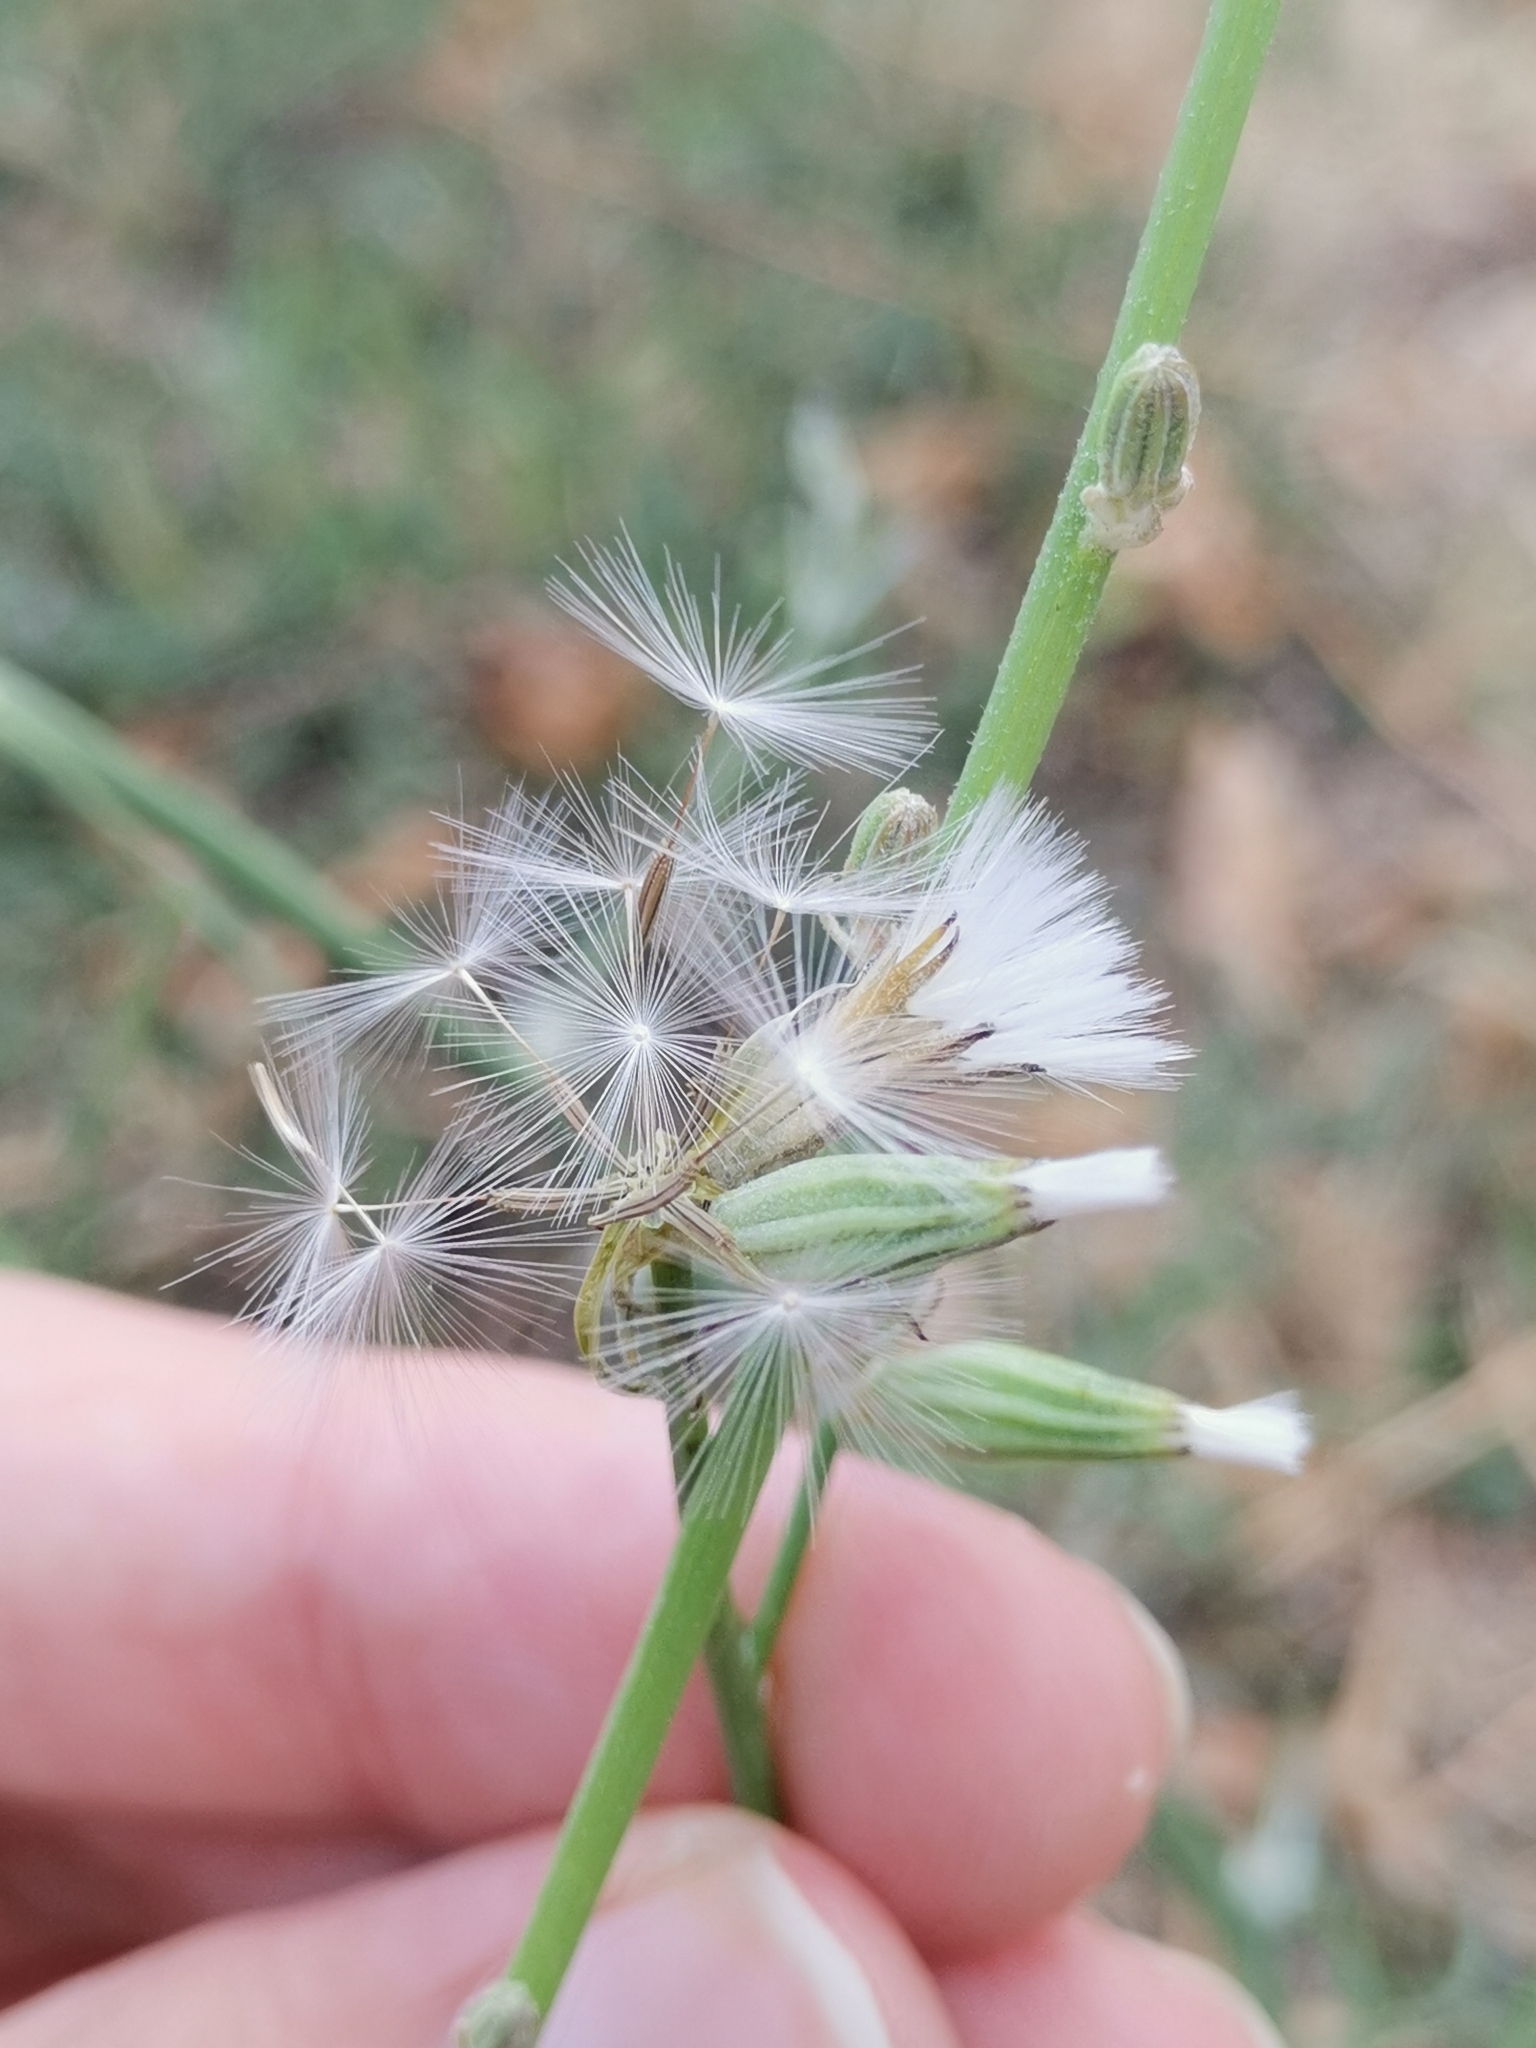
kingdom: Plantae
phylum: Tracheophyta
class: Magnoliopsida
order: Asterales
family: Asteraceae
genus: Chondrilla
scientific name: Chondrilla juncea
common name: Skeleton weed
